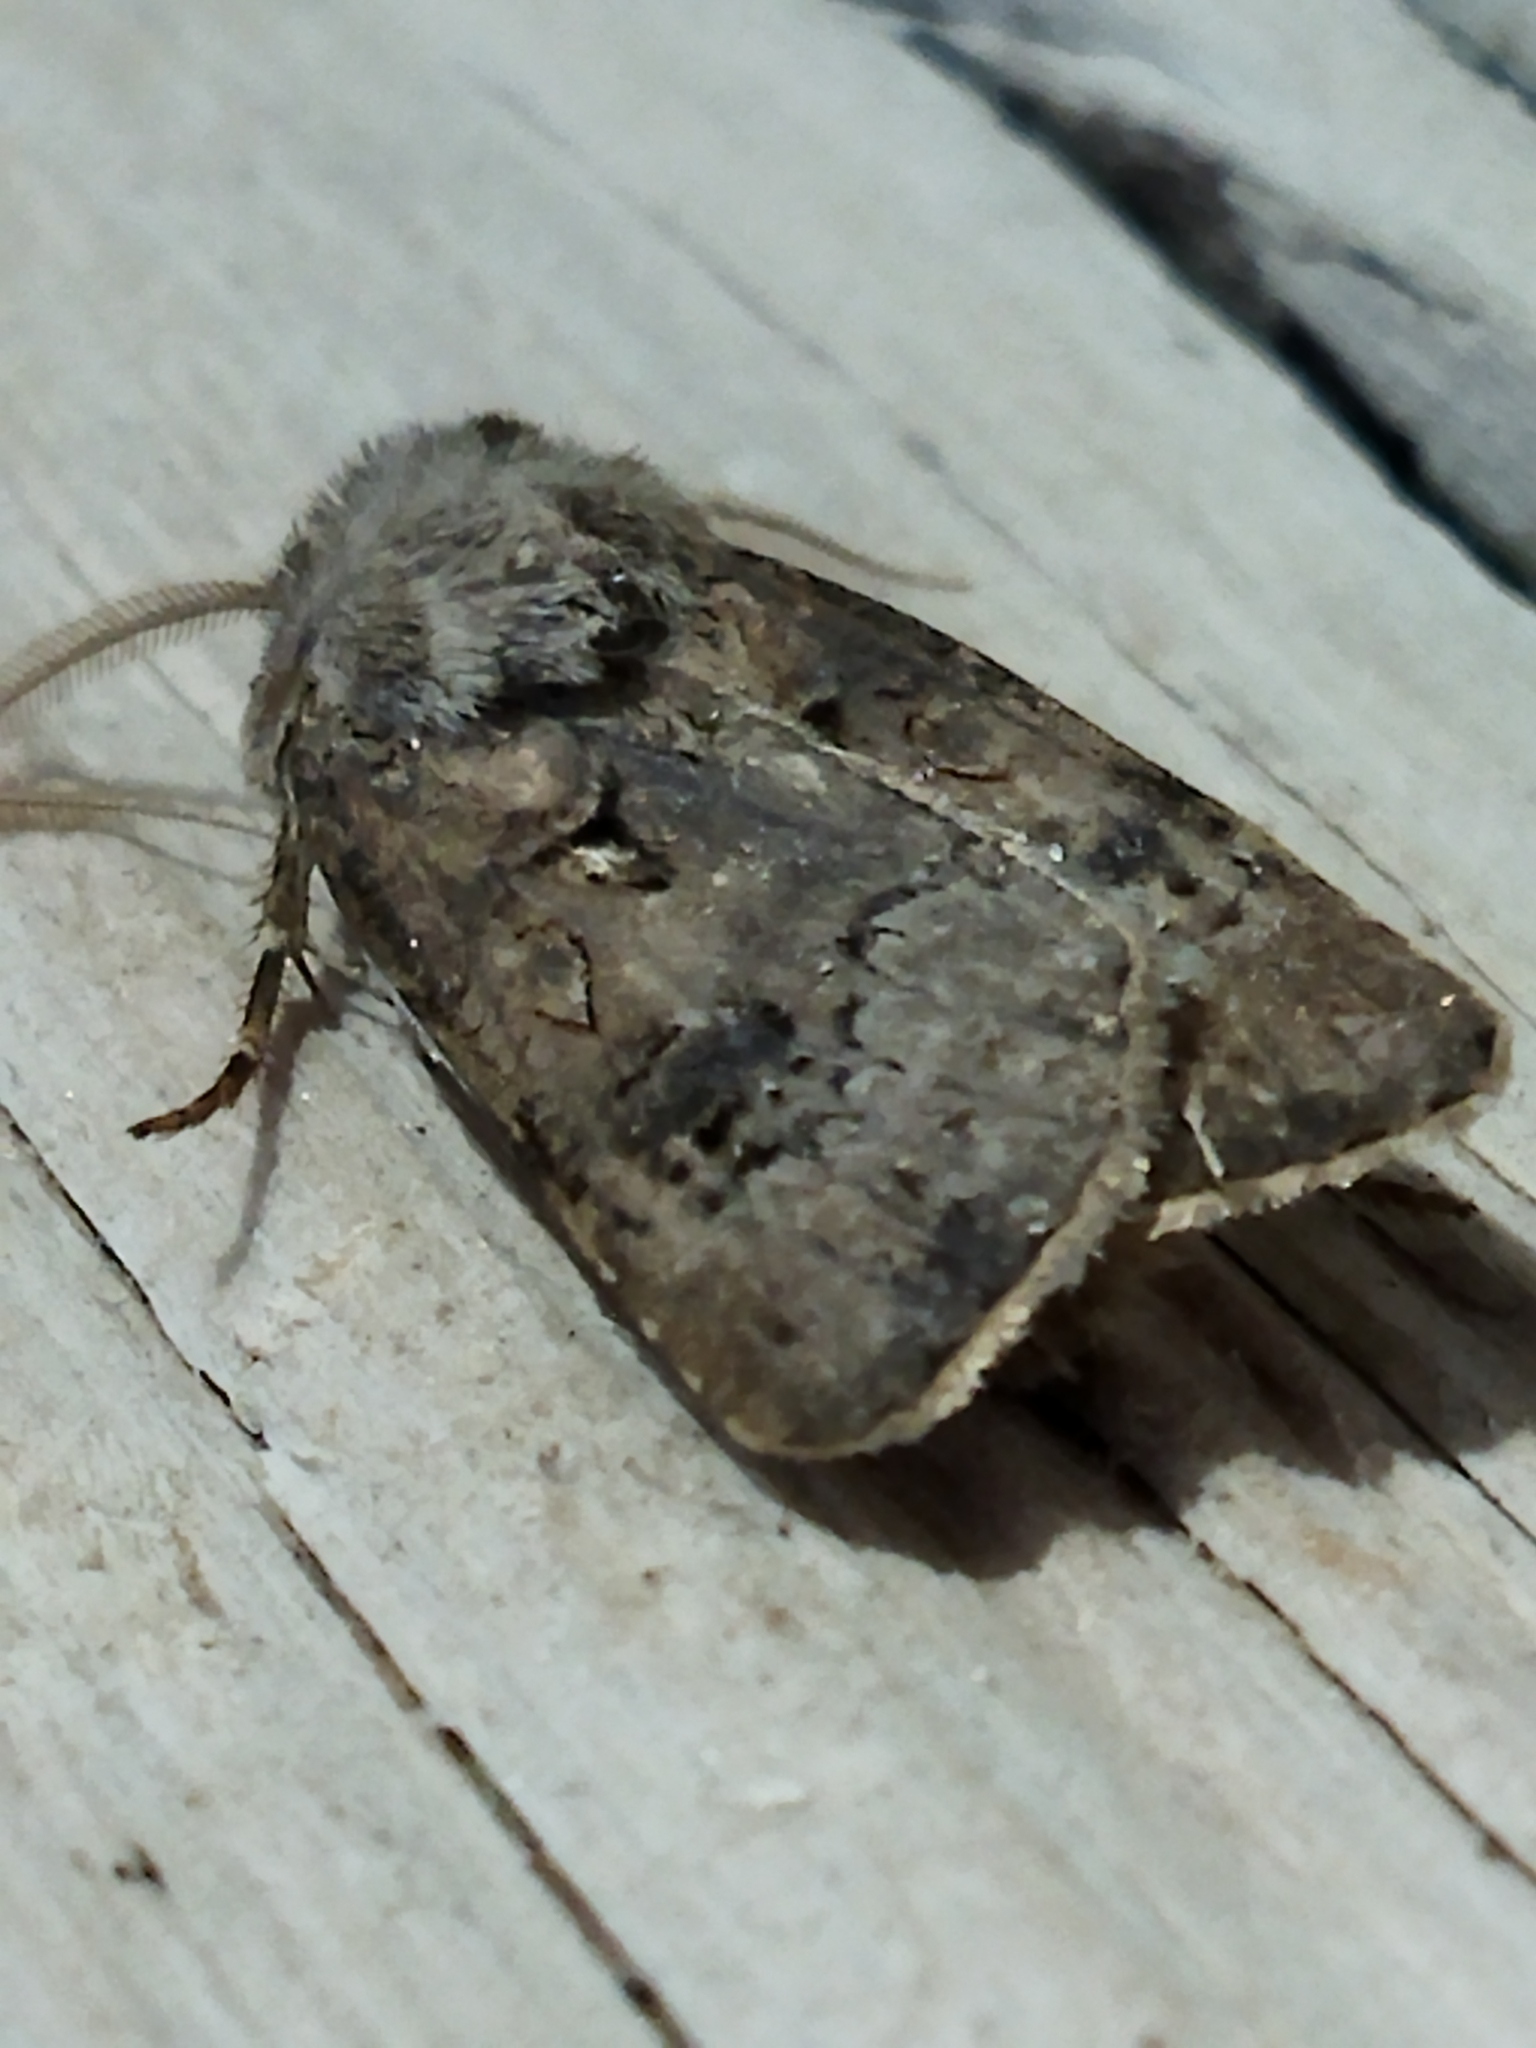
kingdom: Animalia
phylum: Arthropoda
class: Insecta
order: Lepidoptera
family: Noctuidae
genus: Agrotis
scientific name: Agrotis bigramma
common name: Great dart
